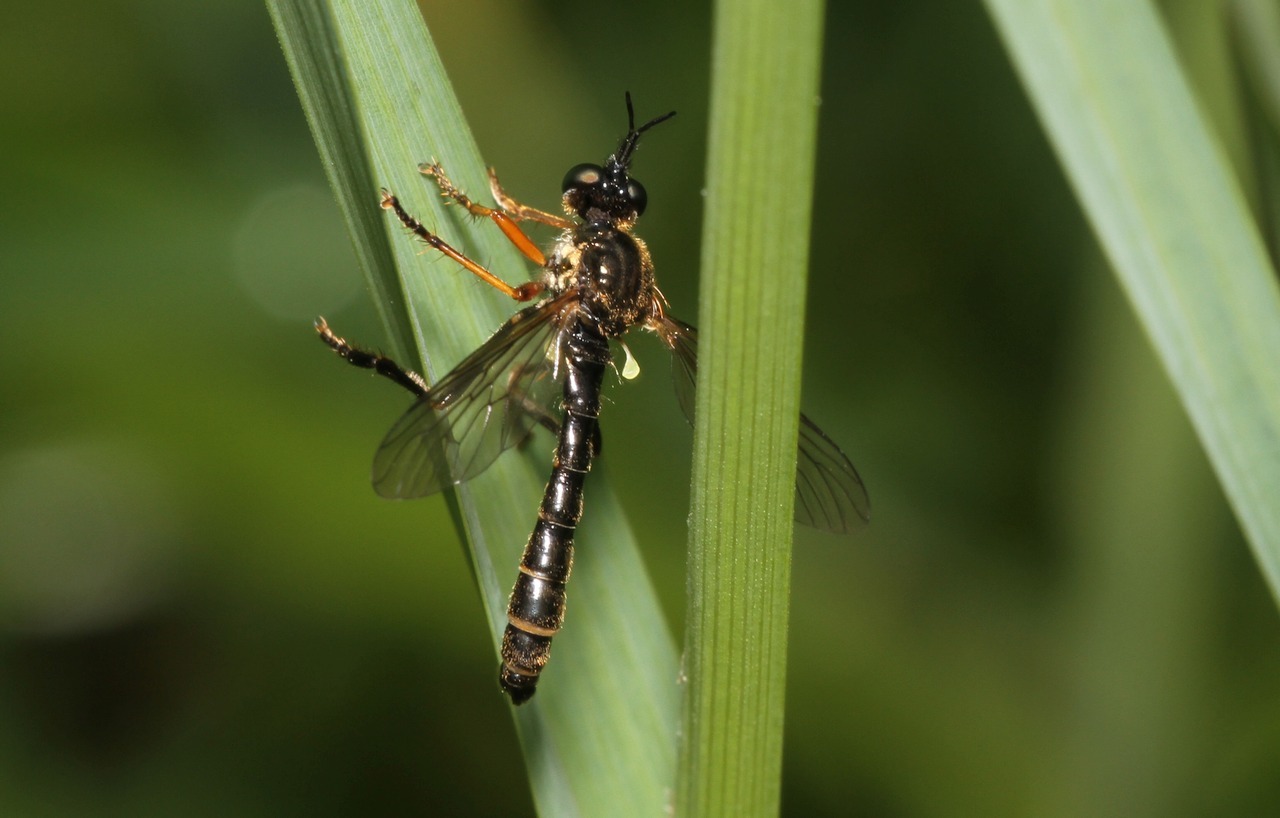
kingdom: Animalia
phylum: Arthropoda
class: Insecta
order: Diptera
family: Asilidae
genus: Dioctria
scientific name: Dioctria rufipes
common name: Common red-legged robberfly
